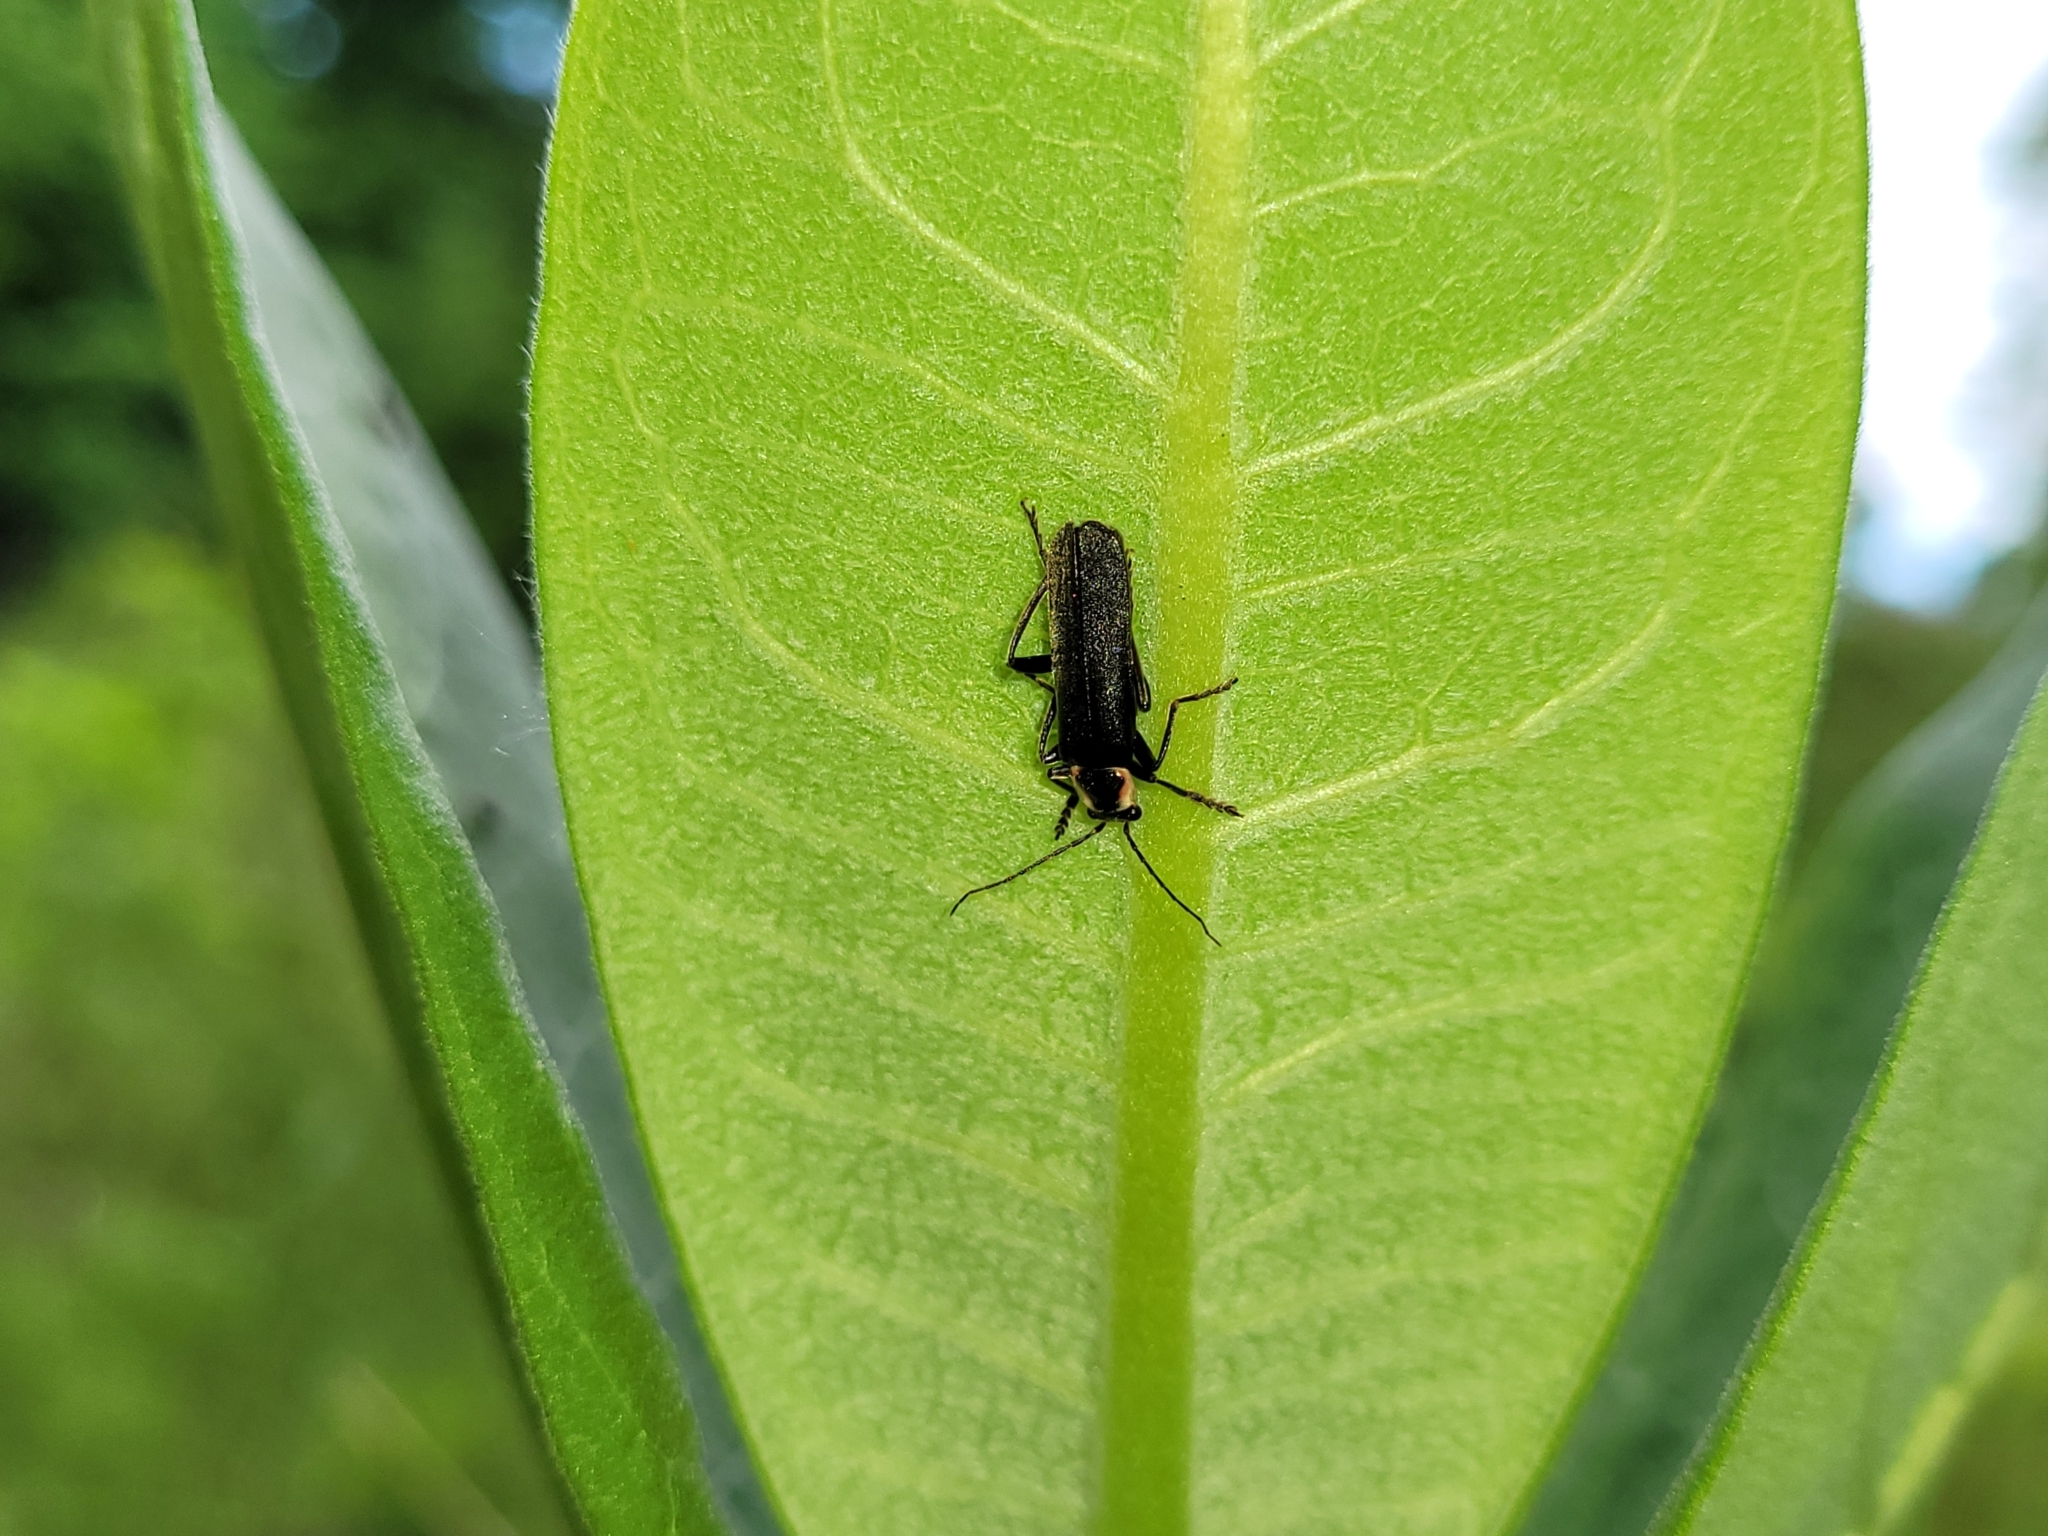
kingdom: Animalia
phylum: Arthropoda
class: Insecta
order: Coleoptera
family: Cantharidae
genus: Rhaxonycha
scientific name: Rhaxonycha bilobata
